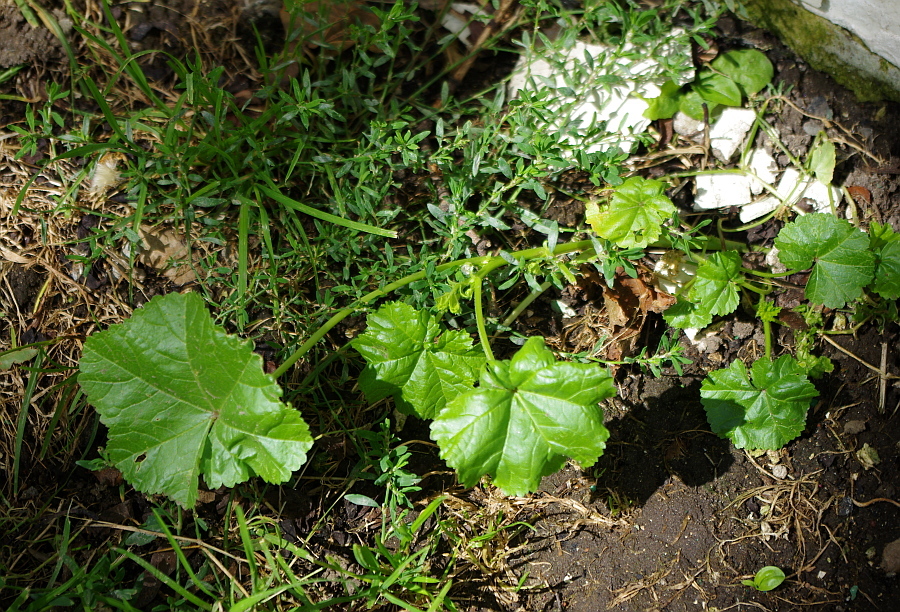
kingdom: Plantae
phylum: Tracheophyta
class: Magnoliopsida
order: Malvales
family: Malvaceae
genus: Malva
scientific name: Malva pusilla
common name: Small mallow
